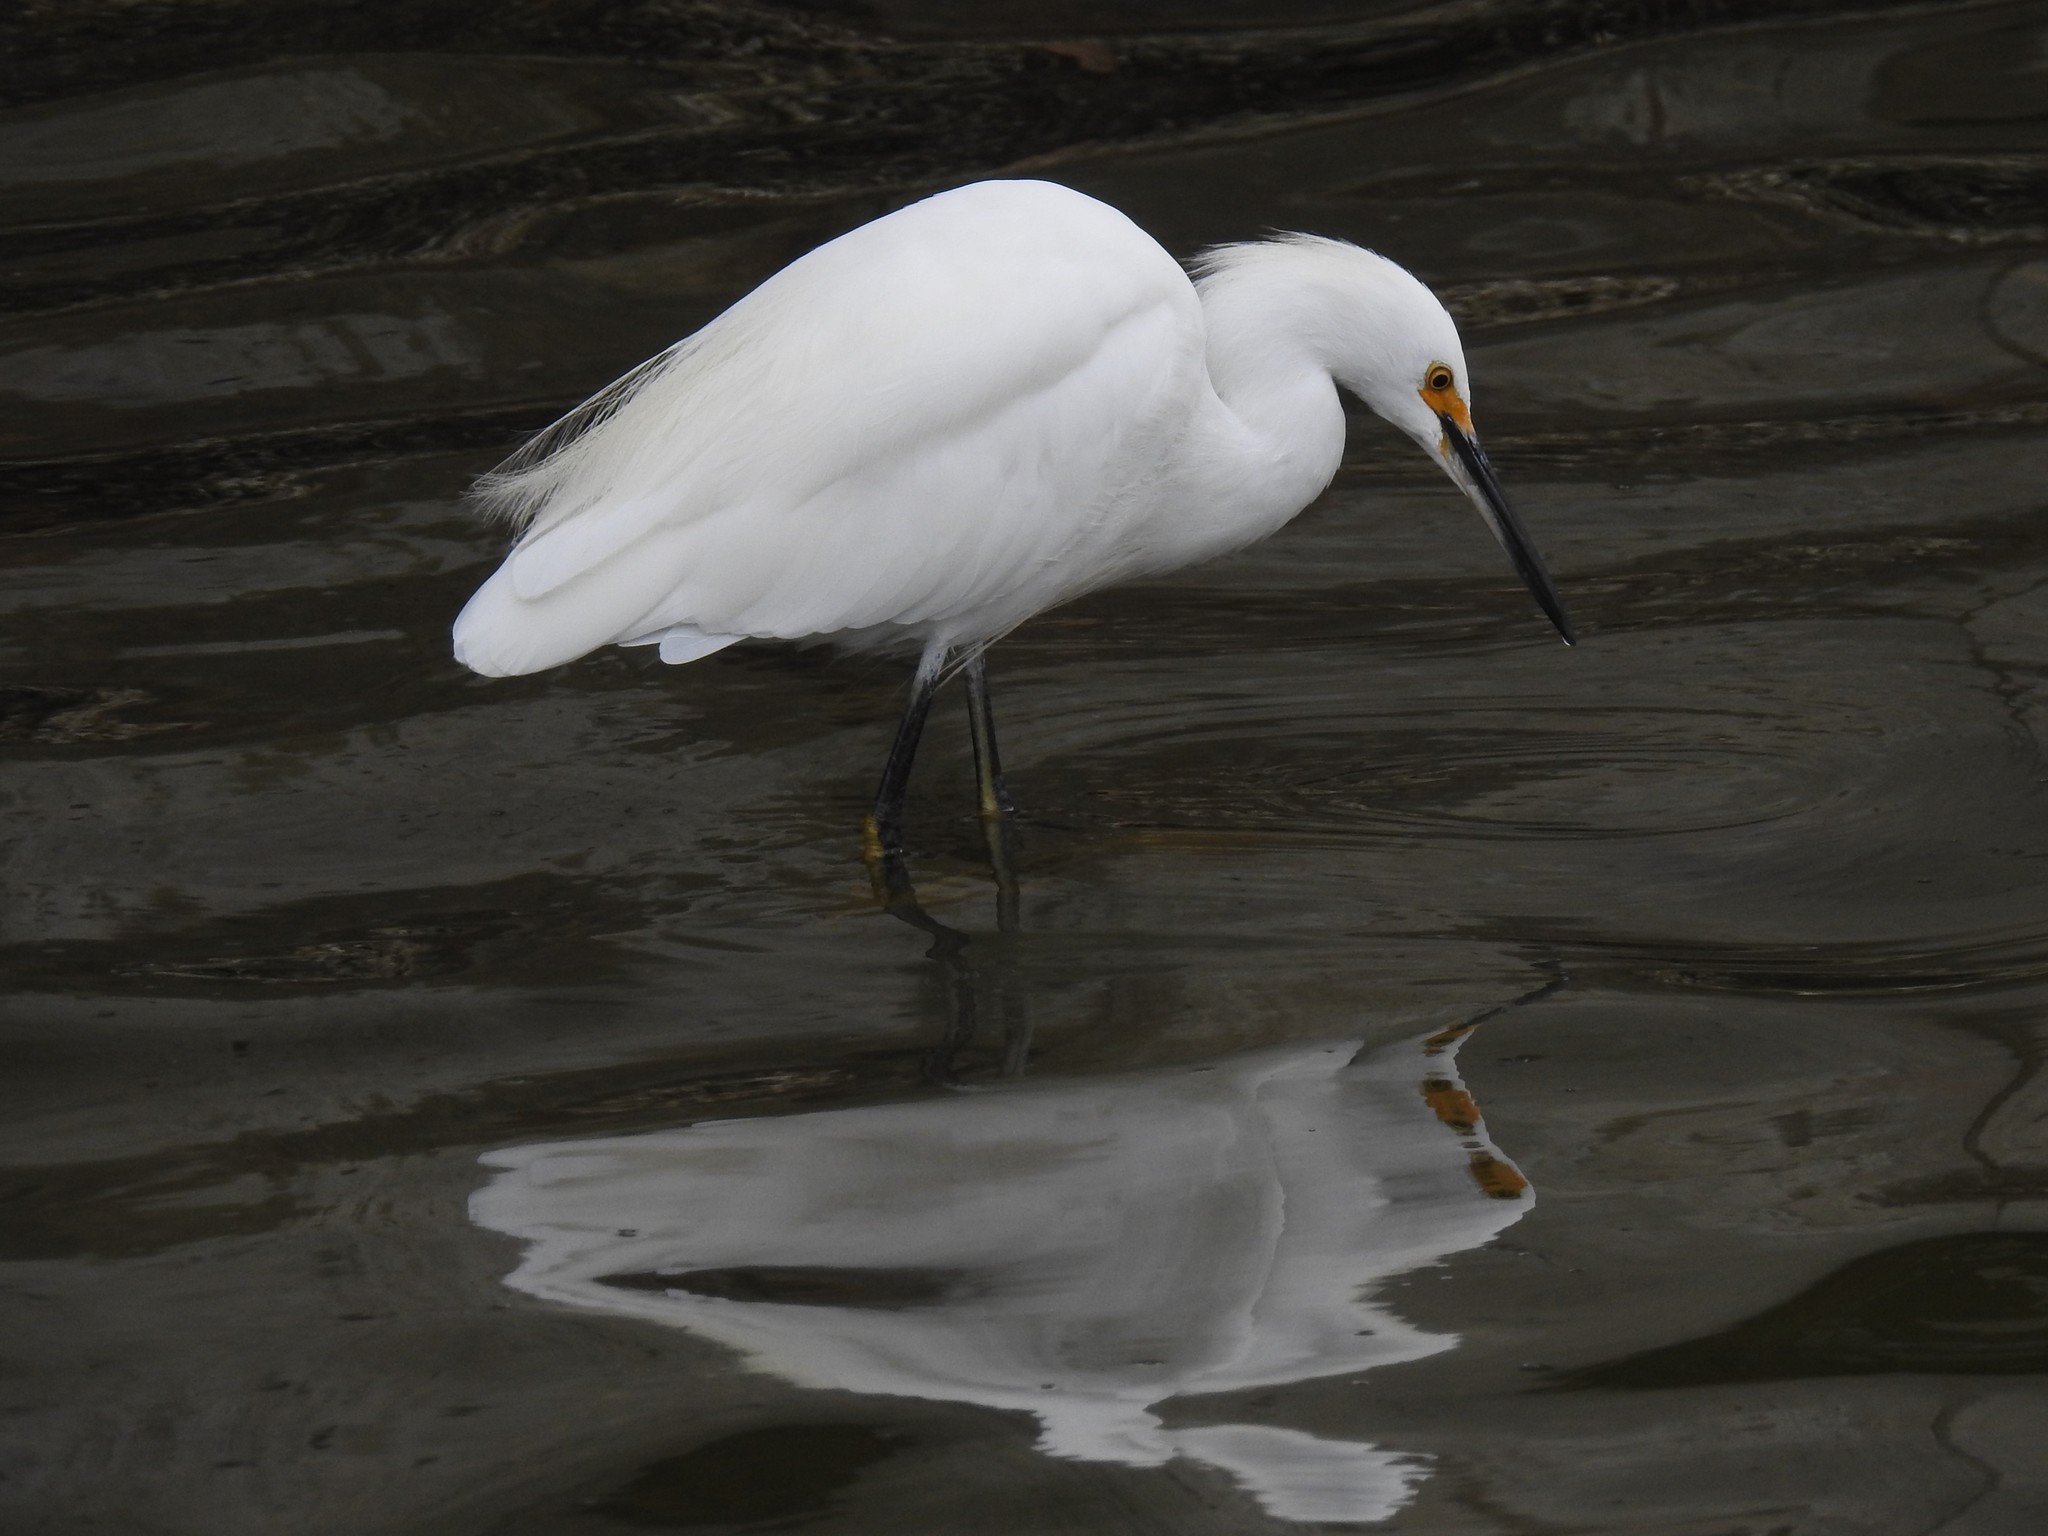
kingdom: Animalia
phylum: Chordata
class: Aves
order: Pelecaniformes
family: Ardeidae
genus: Egretta
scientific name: Egretta thula
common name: Snowy egret
